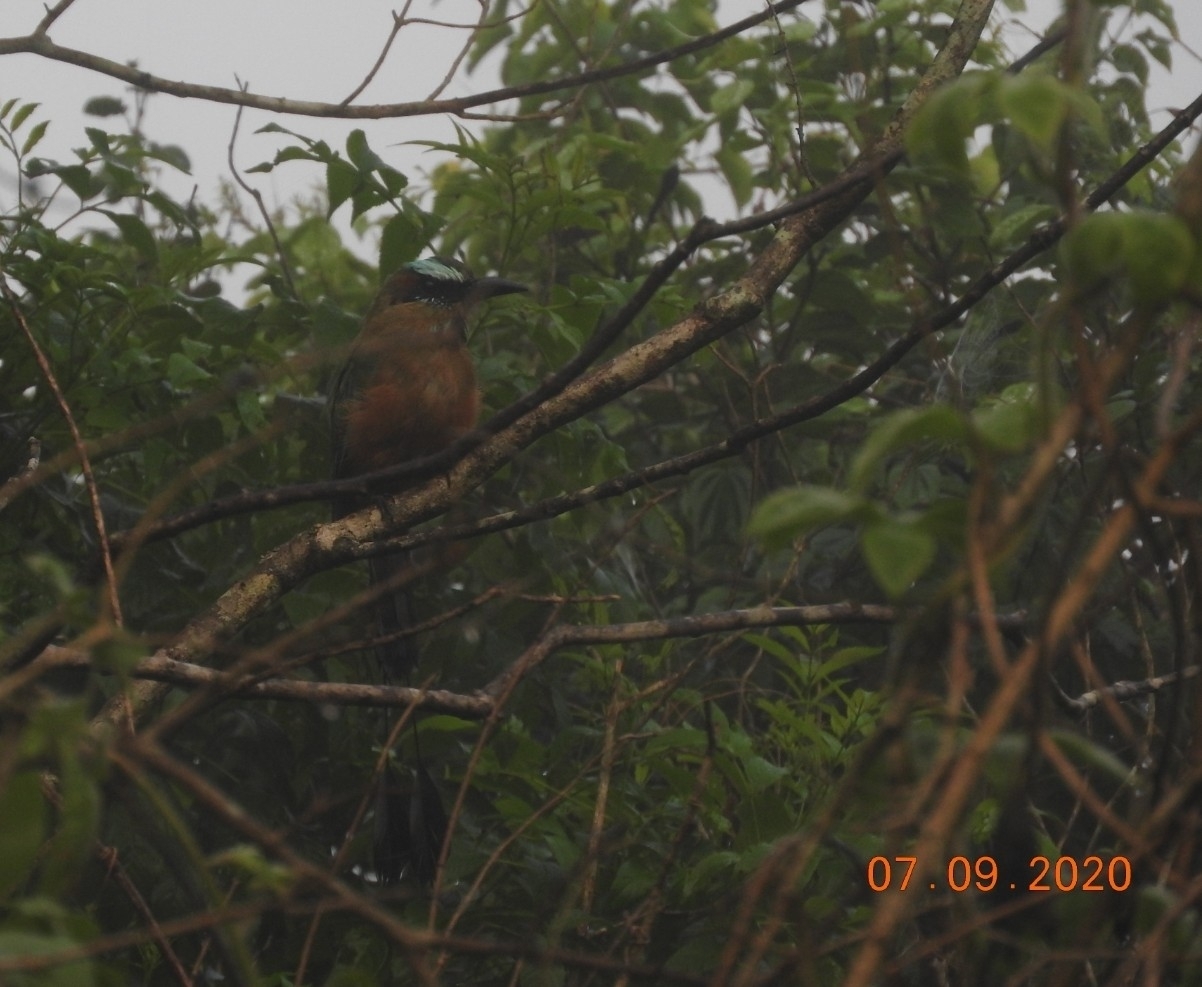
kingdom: Animalia
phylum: Chordata
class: Aves
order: Coraciiformes
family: Momotidae
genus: Eumomota
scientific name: Eumomota superciliosa
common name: Turquoise-browed motmot
